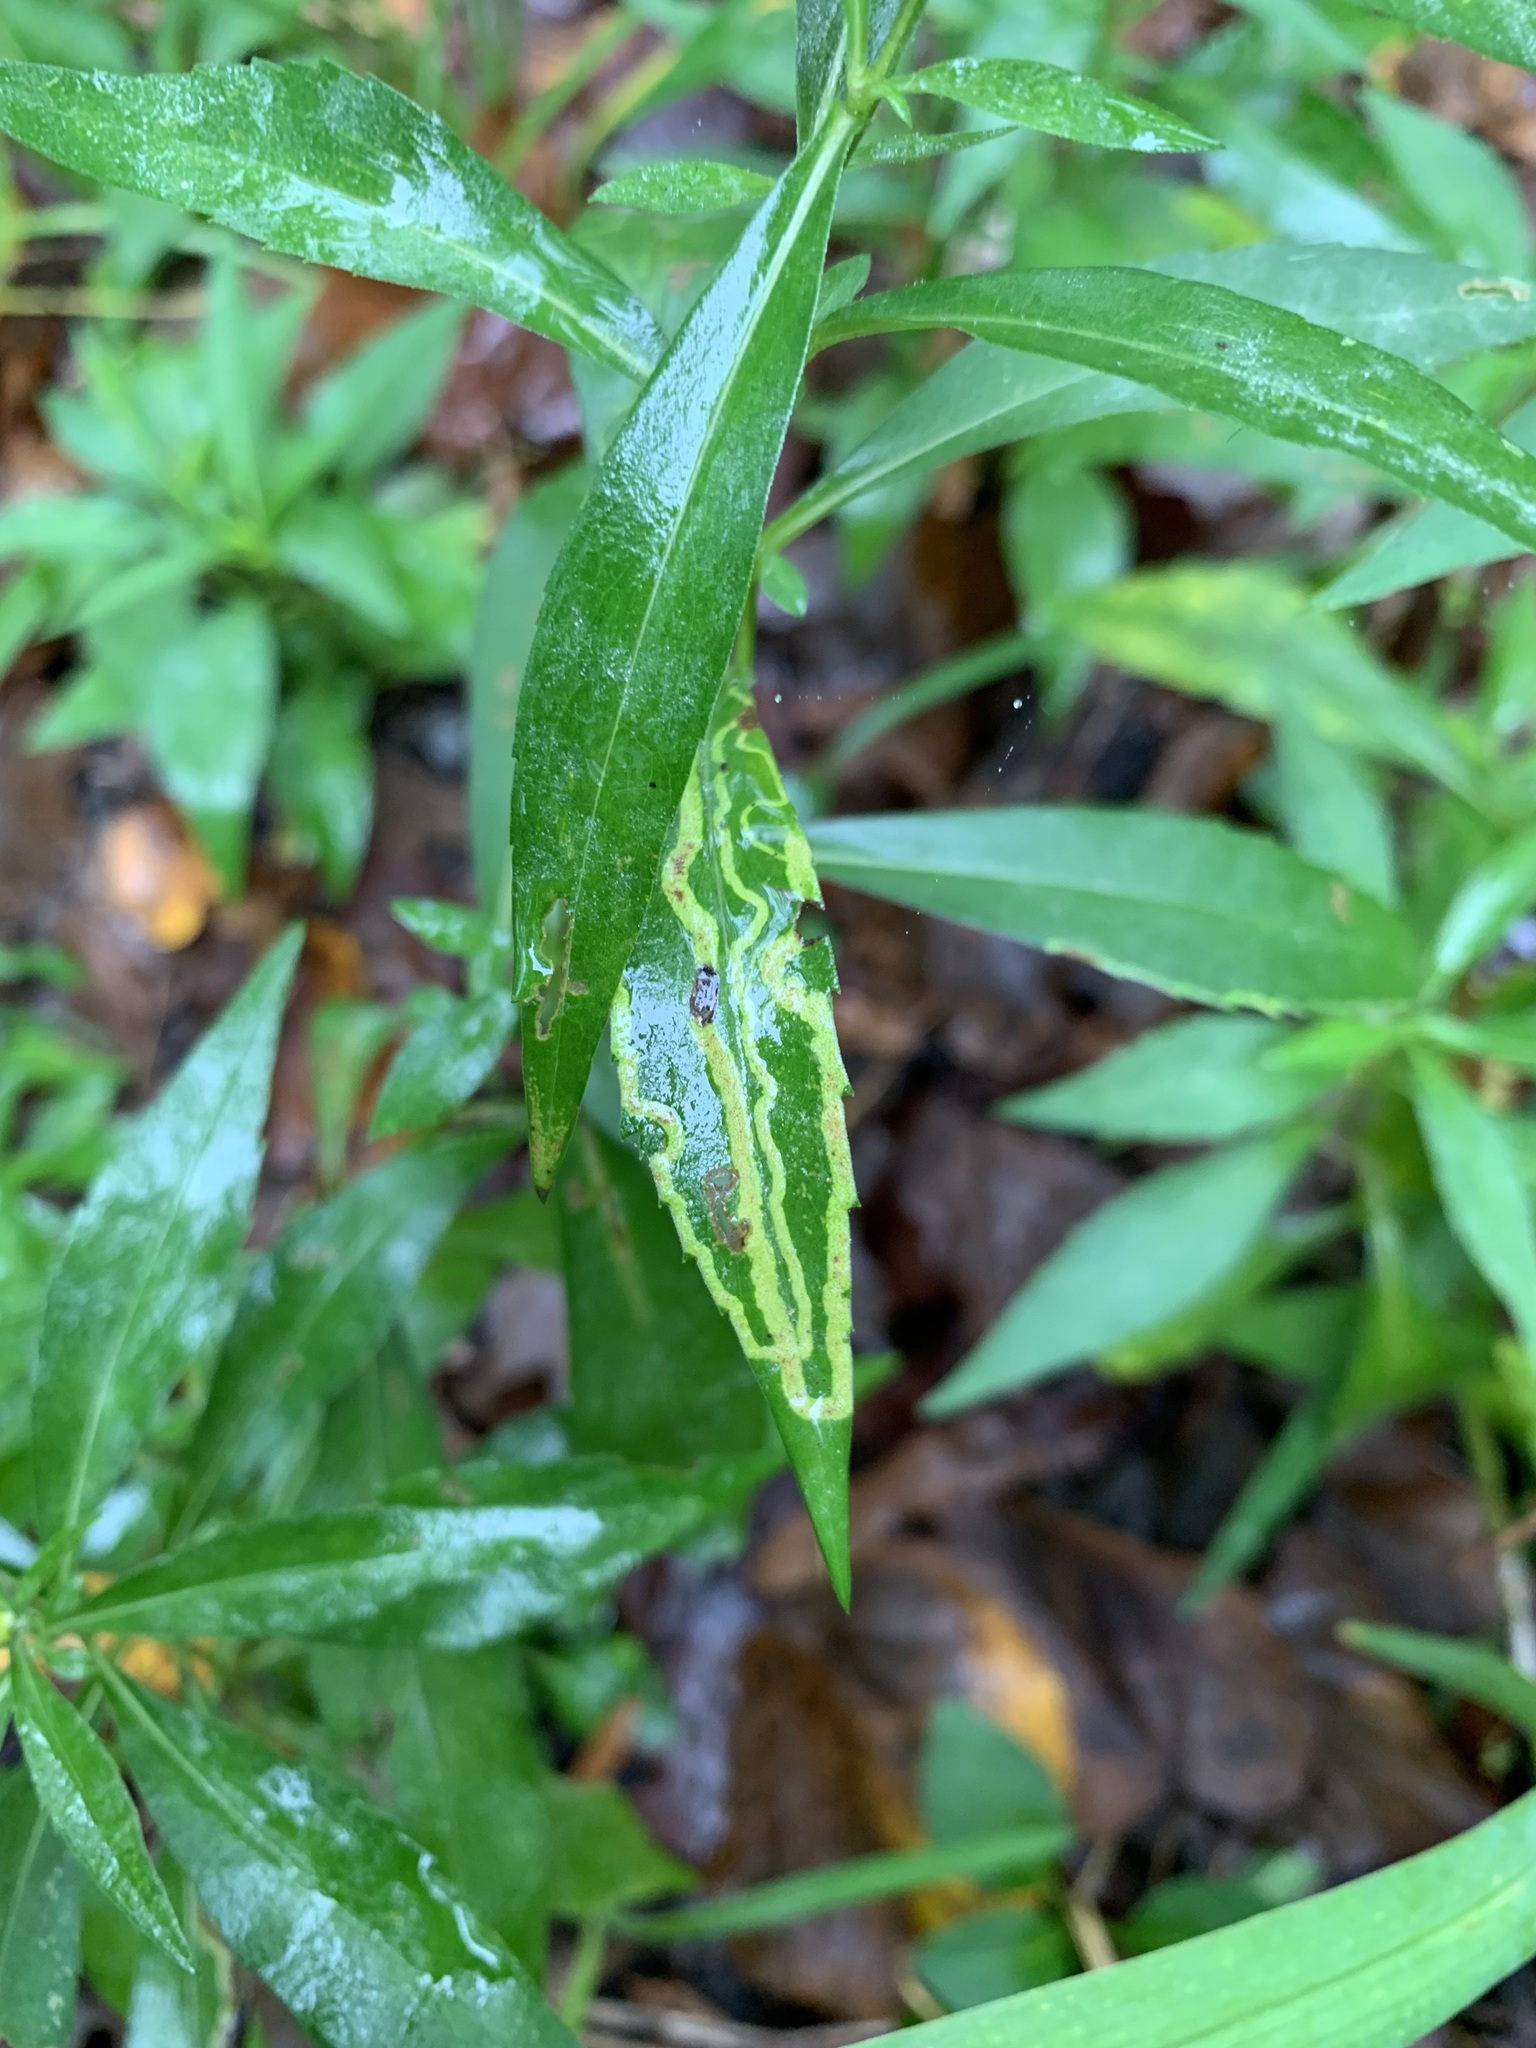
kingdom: Animalia
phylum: Arthropoda
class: Insecta
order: Diptera
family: Agromyzidae
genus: Ophiomyia
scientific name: Ophiomyia parda
